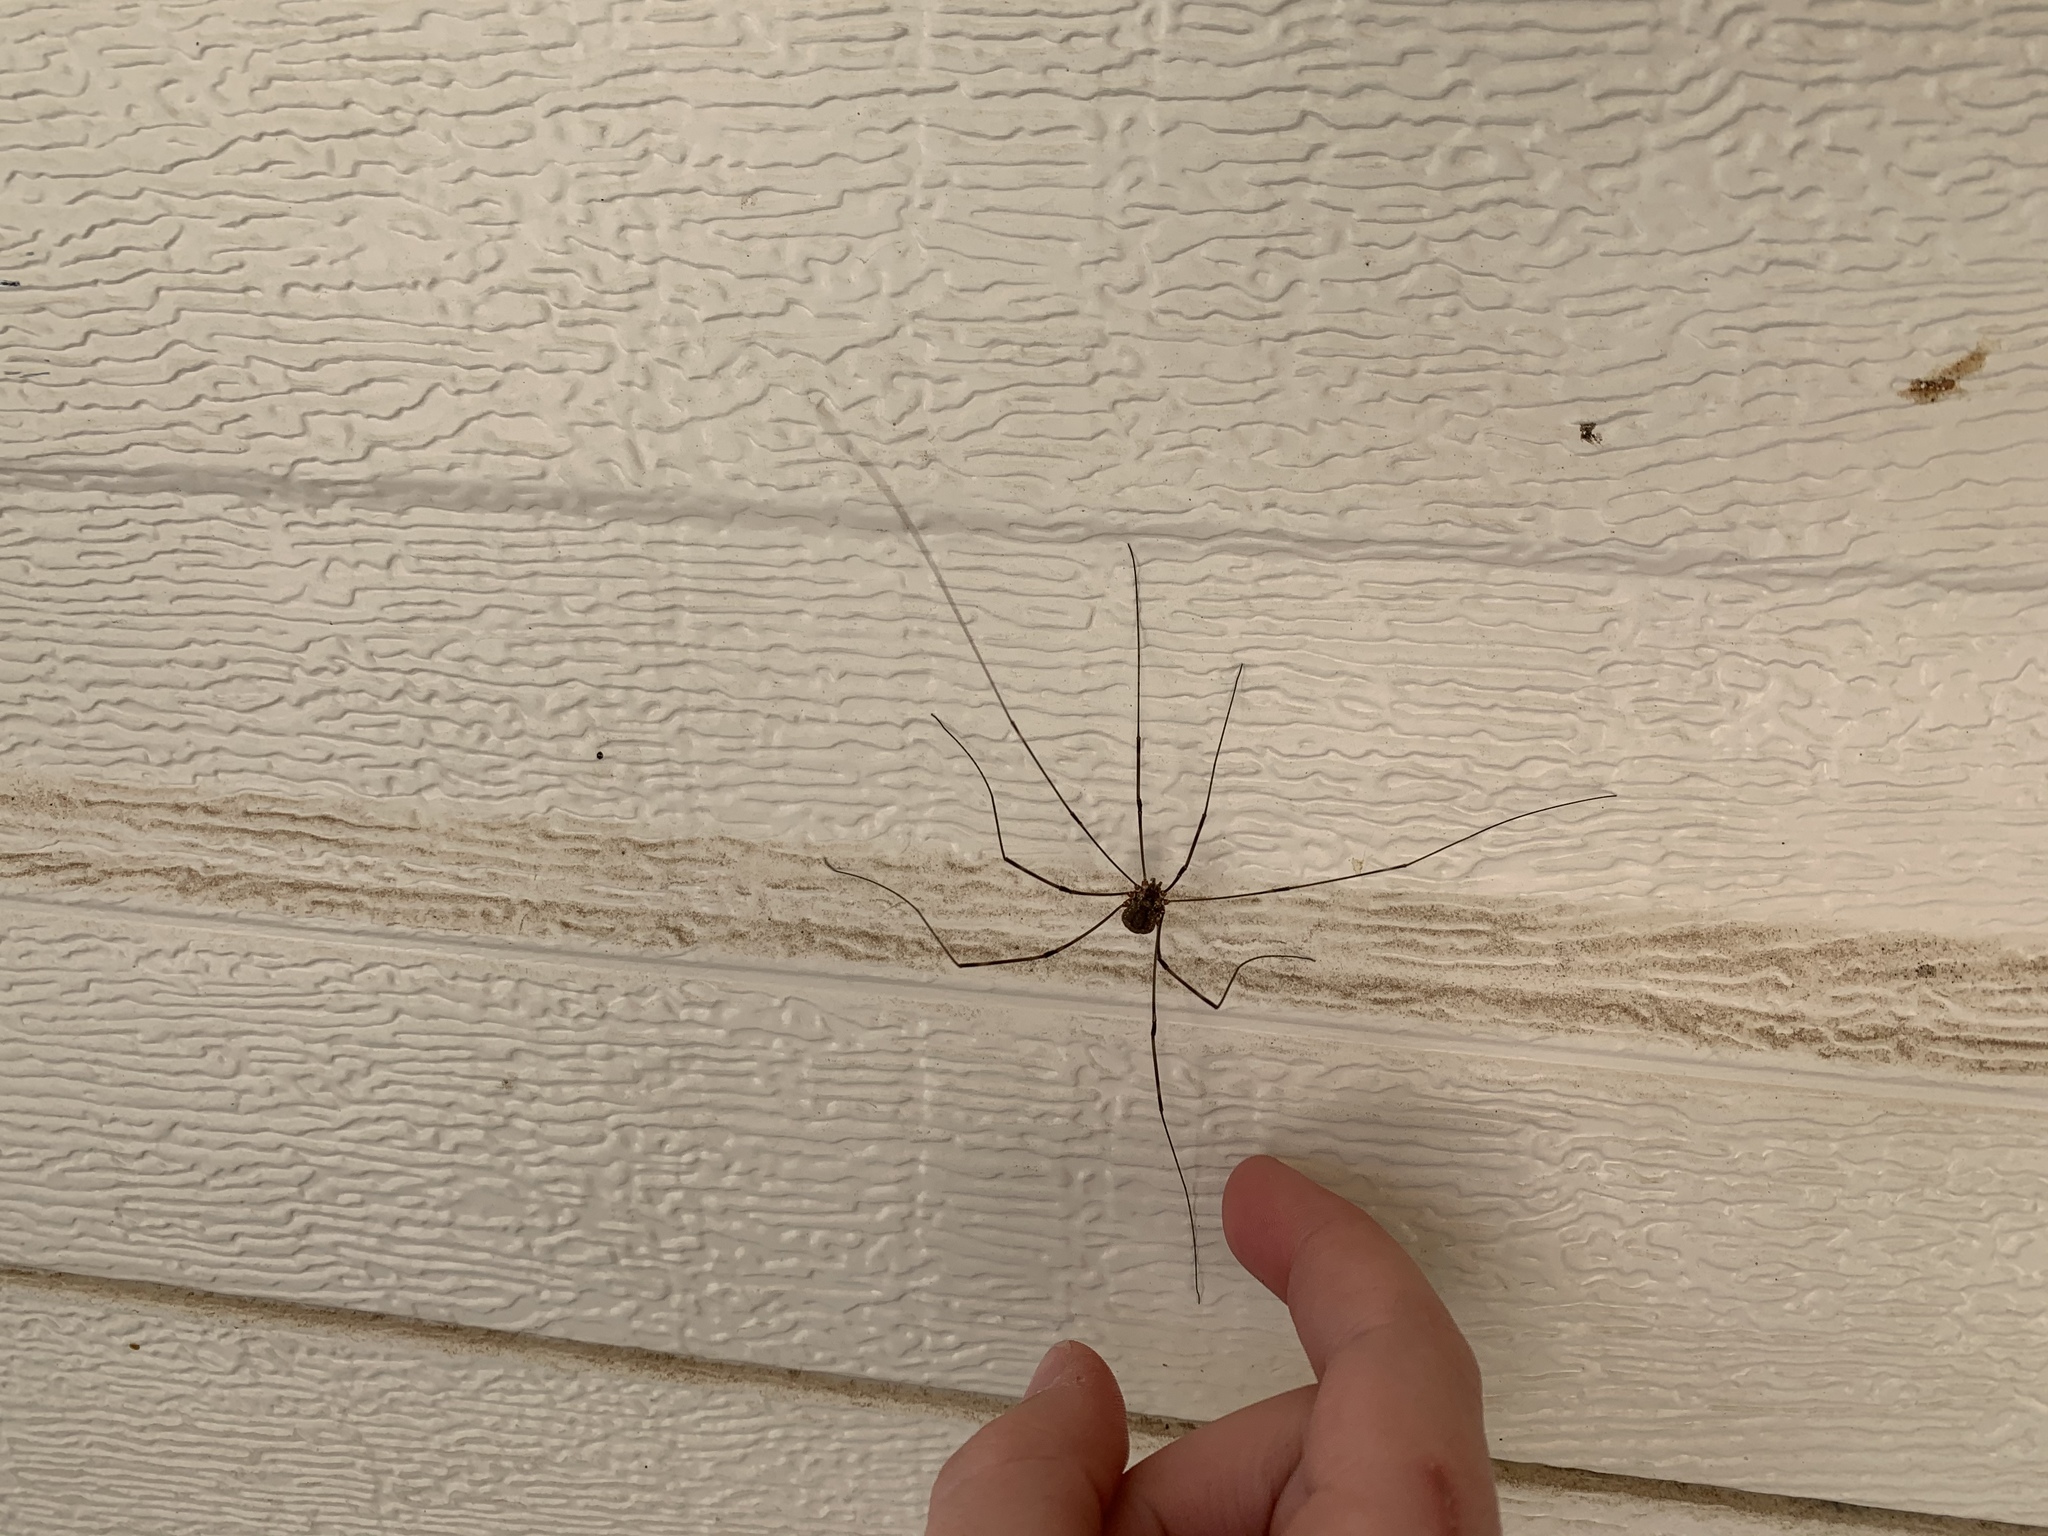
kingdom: Animalia
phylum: Arthropoda
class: Arachnida
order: Opiliones
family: Sclerosomatidae
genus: Leiobunum
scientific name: Leiobunum townsendi
